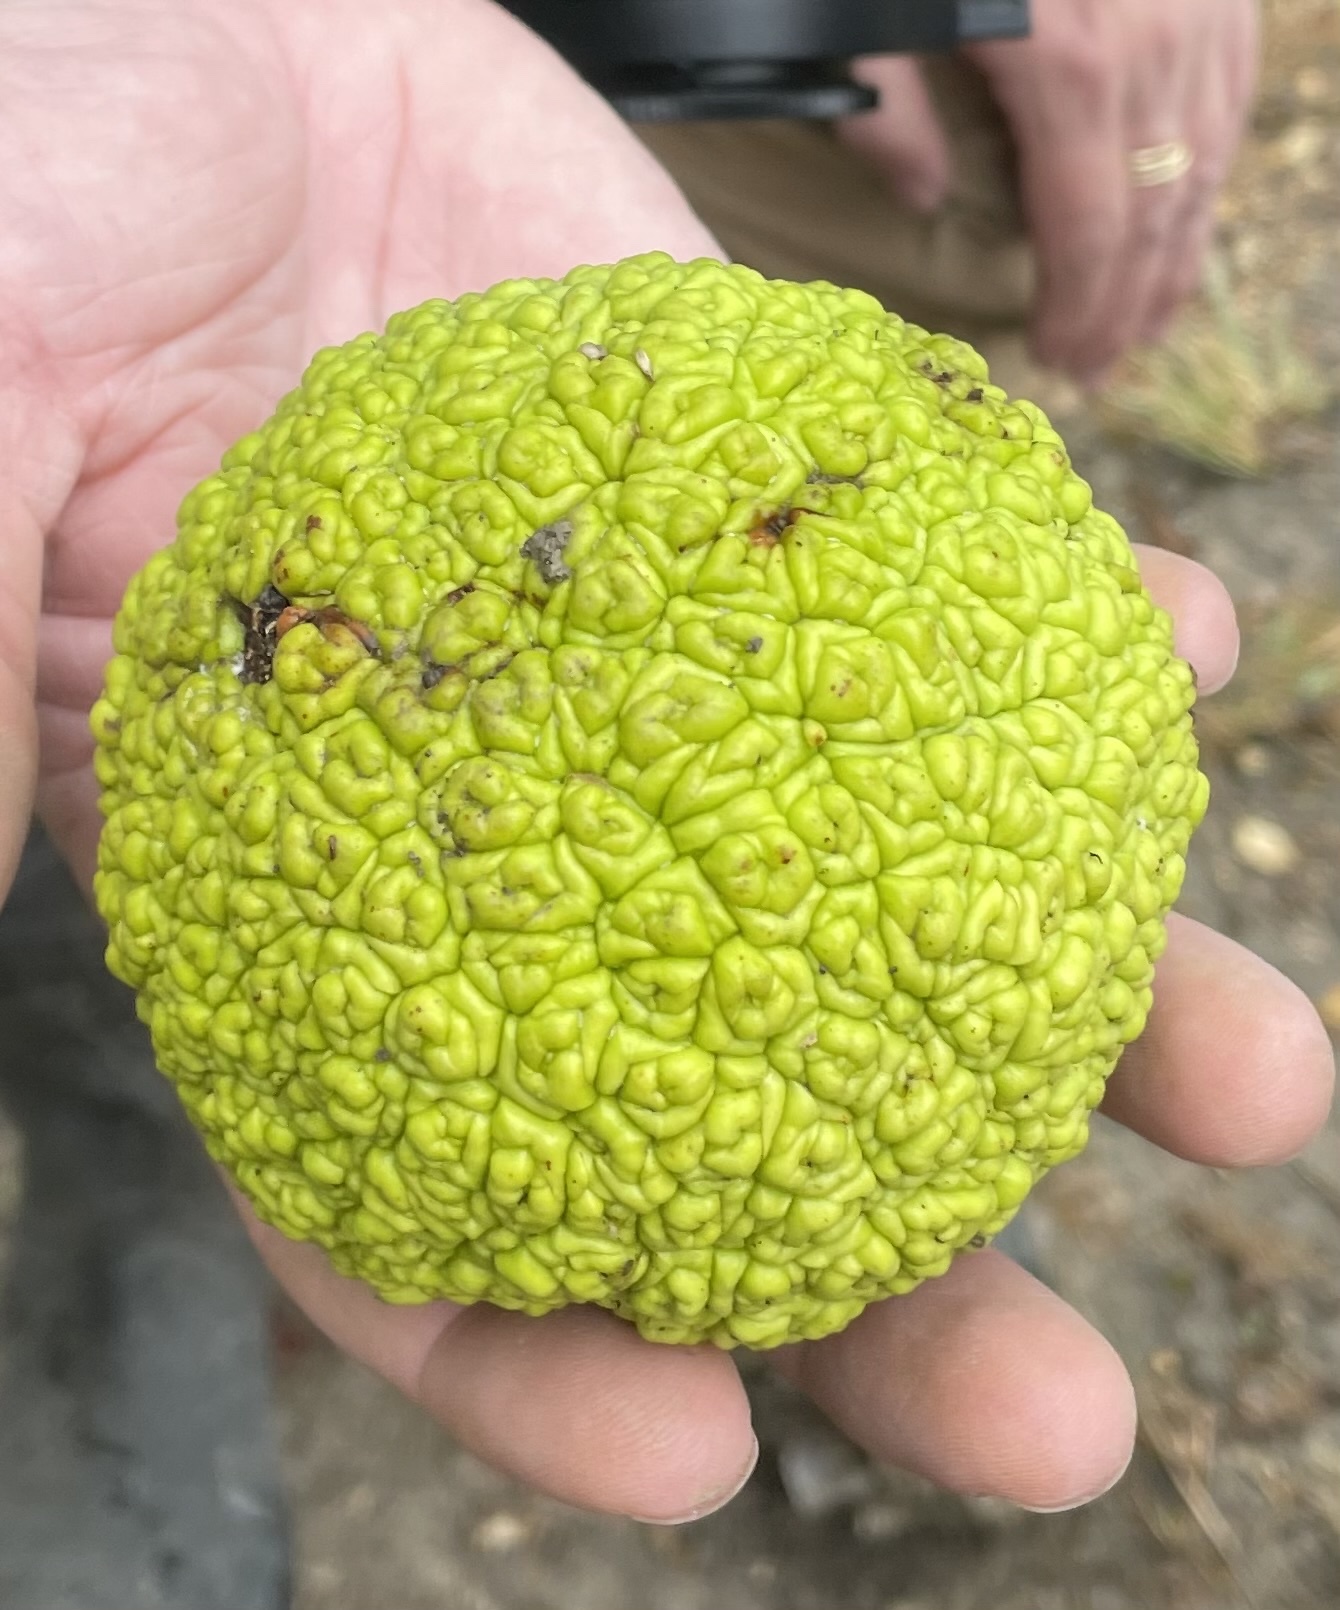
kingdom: Plantae
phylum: Tracheophyta
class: Magnoliopsida
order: Rosales
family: Moraceae
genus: Maclura
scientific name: Maclura pomifera
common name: Osage-orange
